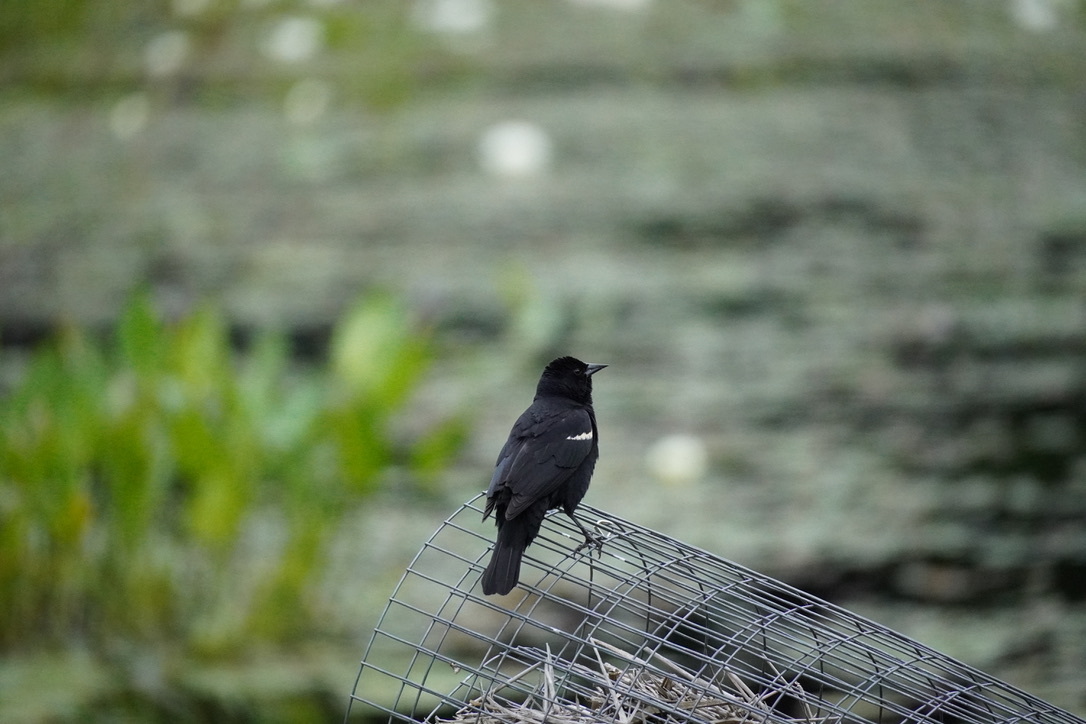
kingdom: Animalia
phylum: Chordata
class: Aves
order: Passeriformes
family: Icteridae
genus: Agelaius
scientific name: Agelaius phoeniceus
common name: Red-winged blackbird
